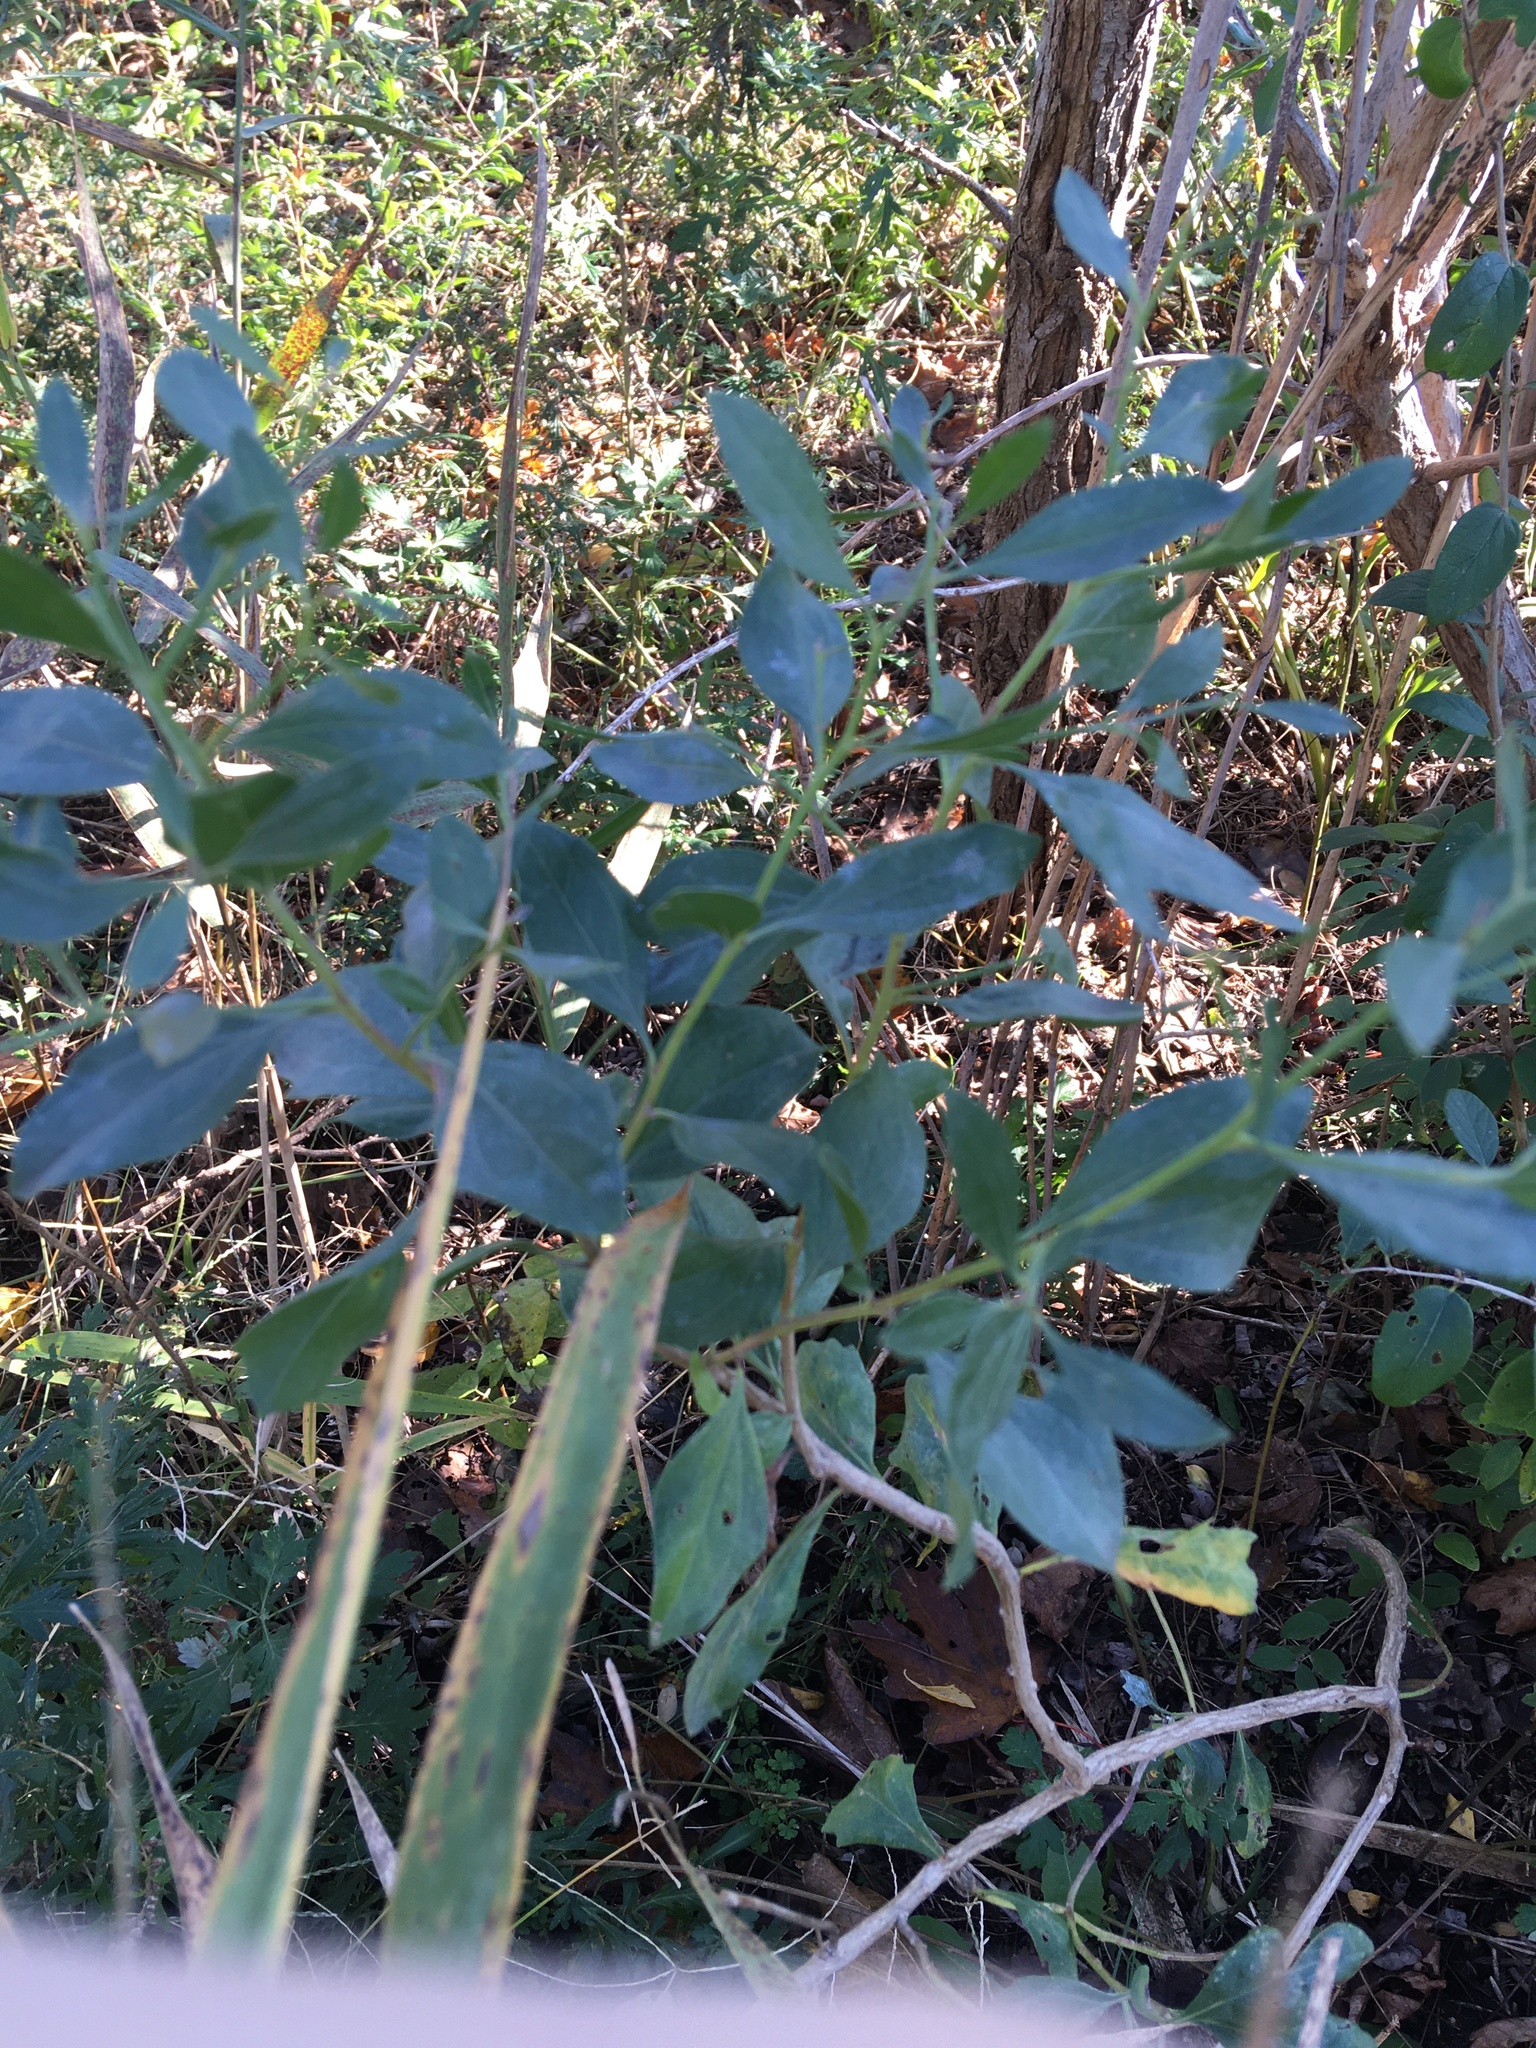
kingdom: Plantae
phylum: Tracheophyta
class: Magnoliopsida
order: Asterales
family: Asteraceae
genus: Baccharis
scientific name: Baccharis halimifolia
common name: Eastern baccharis
